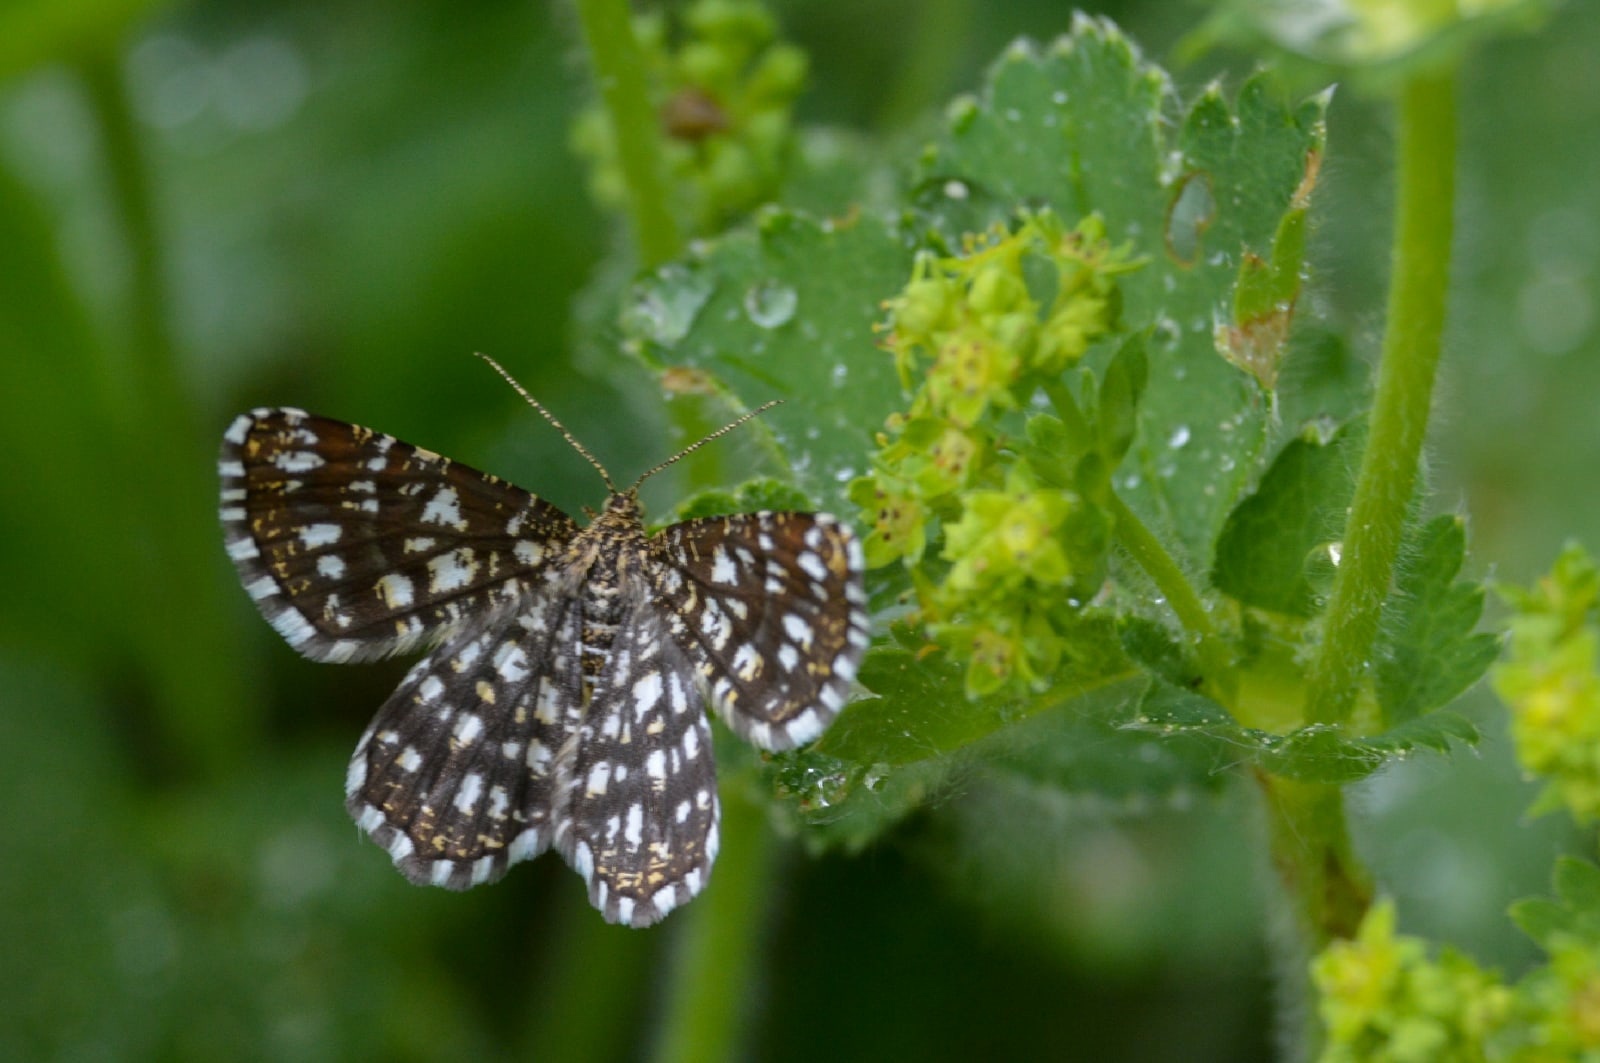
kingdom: Animalia
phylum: Arthropoda
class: Insecta
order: Lepidoptera
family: Geometridae
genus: Chiasmia
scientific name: Chiasmia clathrata
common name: Latticed heath
